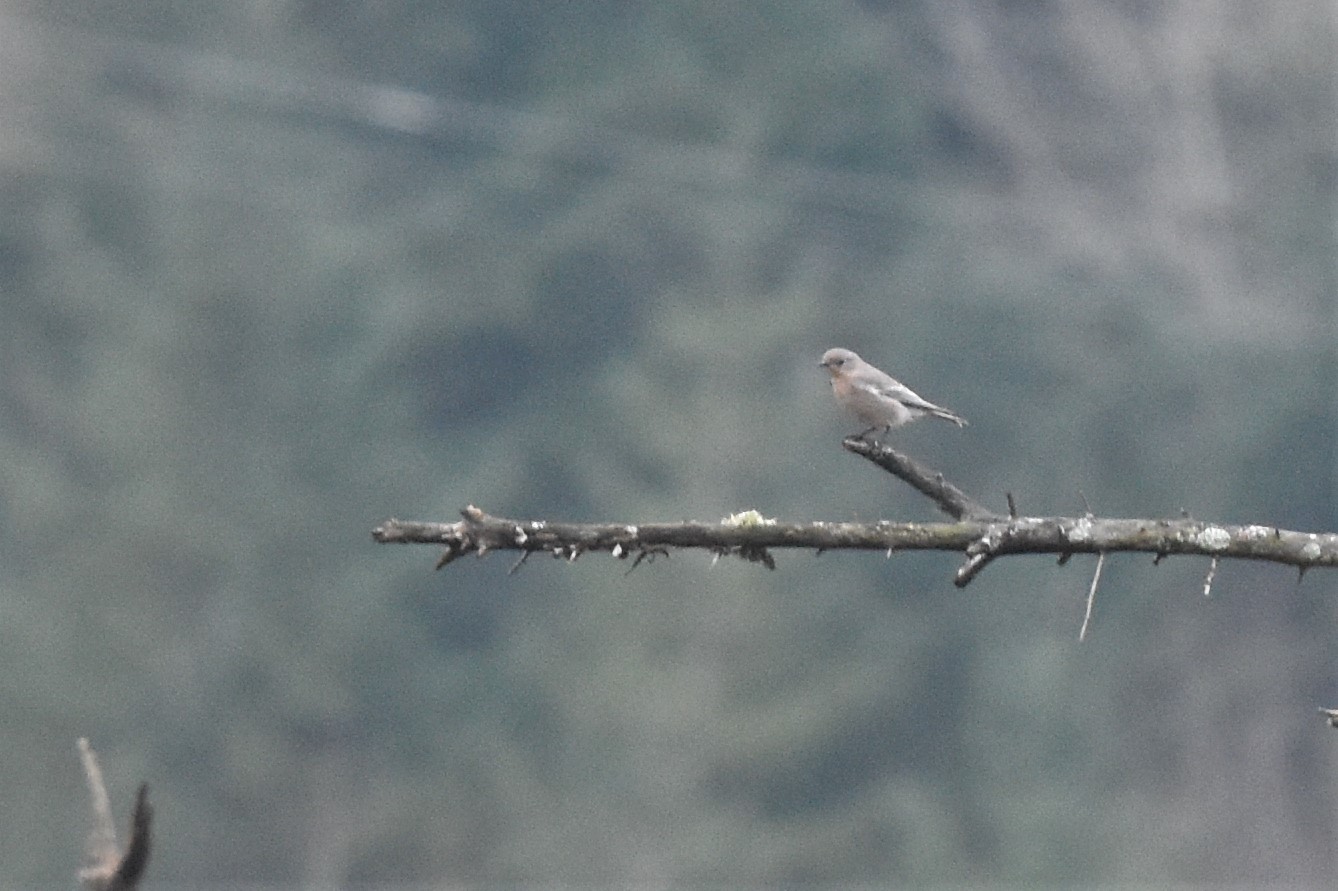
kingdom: Animalia
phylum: Chordata
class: Aves
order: Passeriformes
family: Turdidae
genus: Sialia
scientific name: Sialia currucoides
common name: Mountain bluebird
